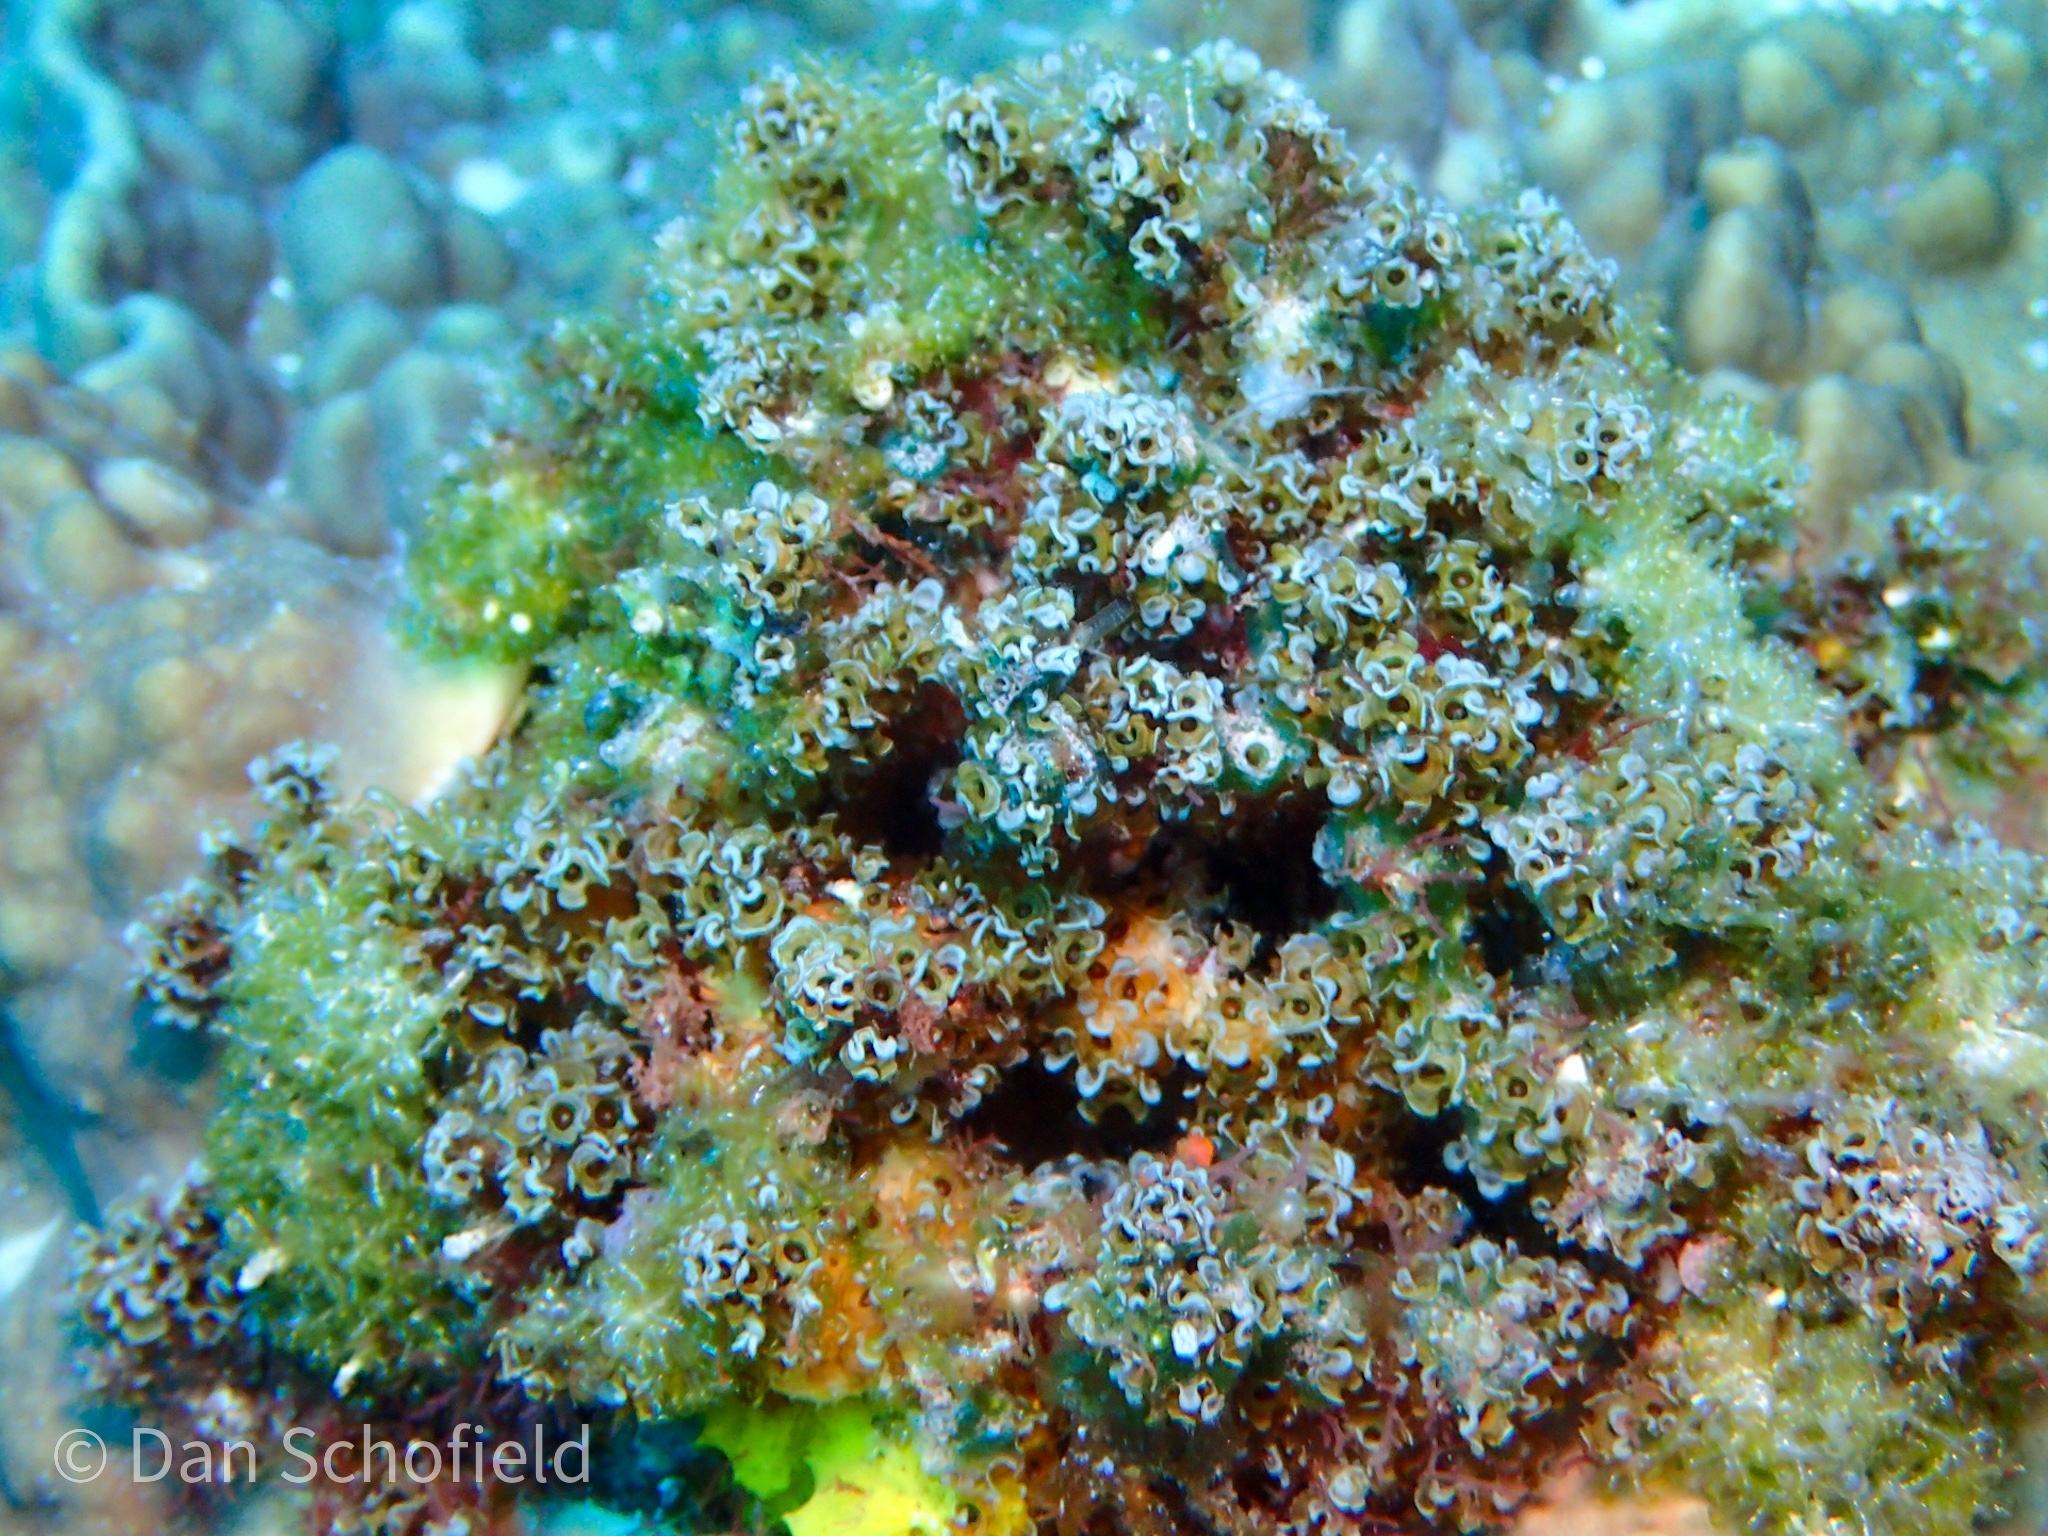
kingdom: Animalia
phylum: Cnidaria
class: Scyphozoa
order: Coronatae
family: Nausithoidae
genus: Nausithoe
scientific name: Nausithoe racemosa
